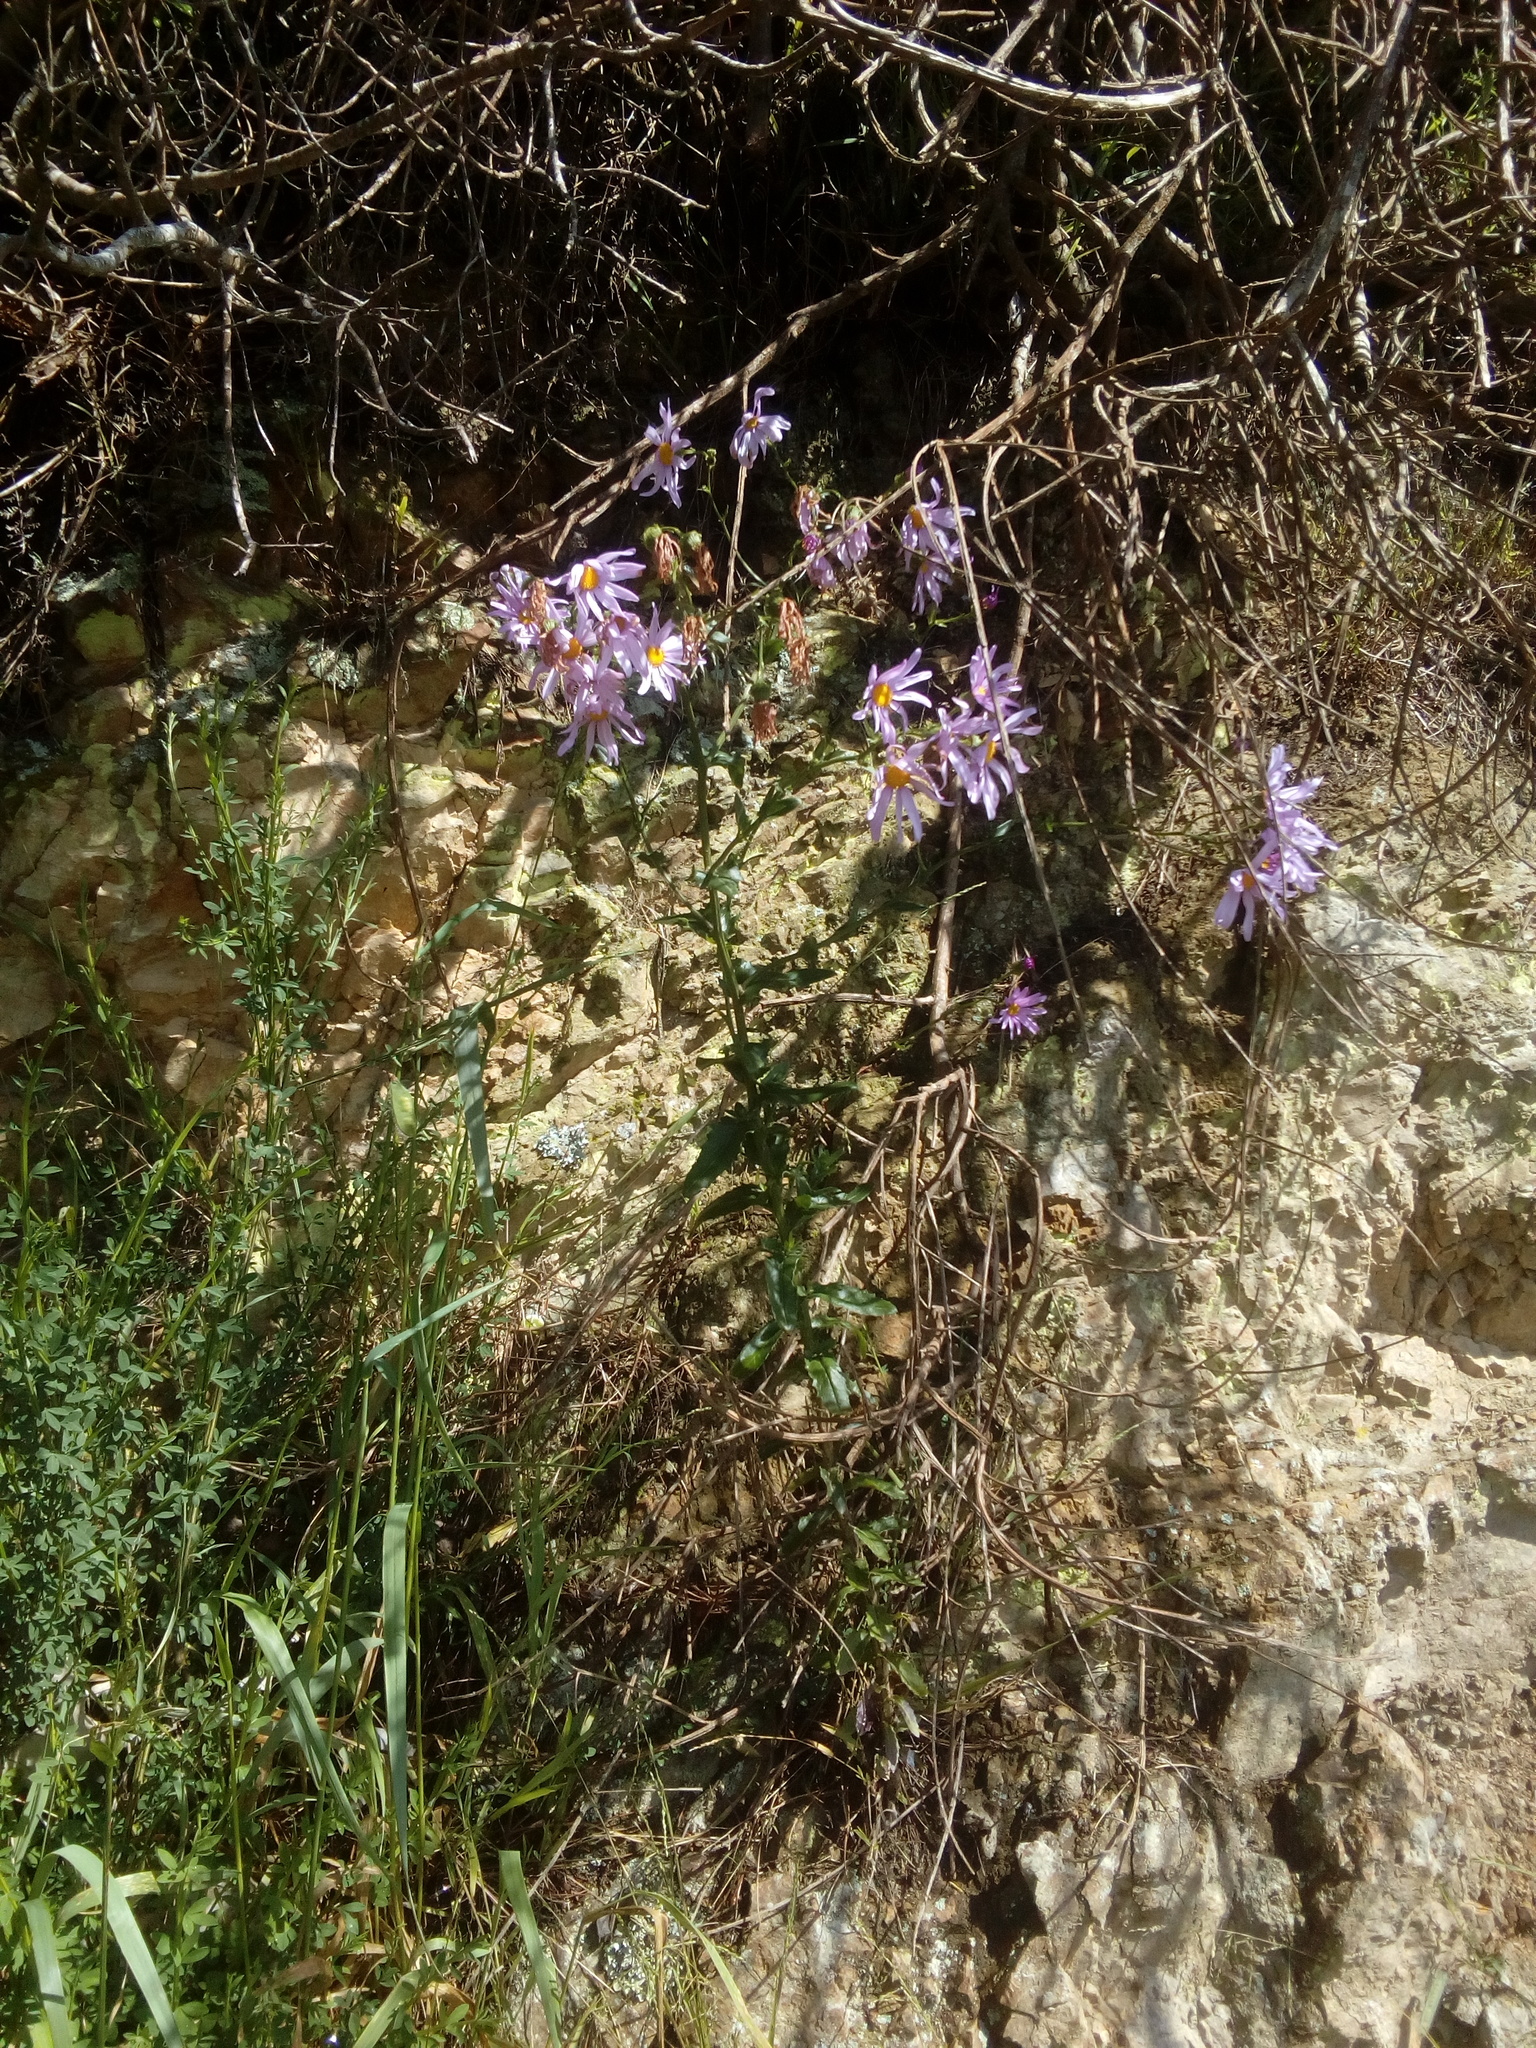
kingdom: Plantae
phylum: Tracheophyta
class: Magnoliopsida
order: Asterales
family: Asteraceae
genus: Senecio
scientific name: Senecio glastifolius
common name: Woad-leaved ragwort
